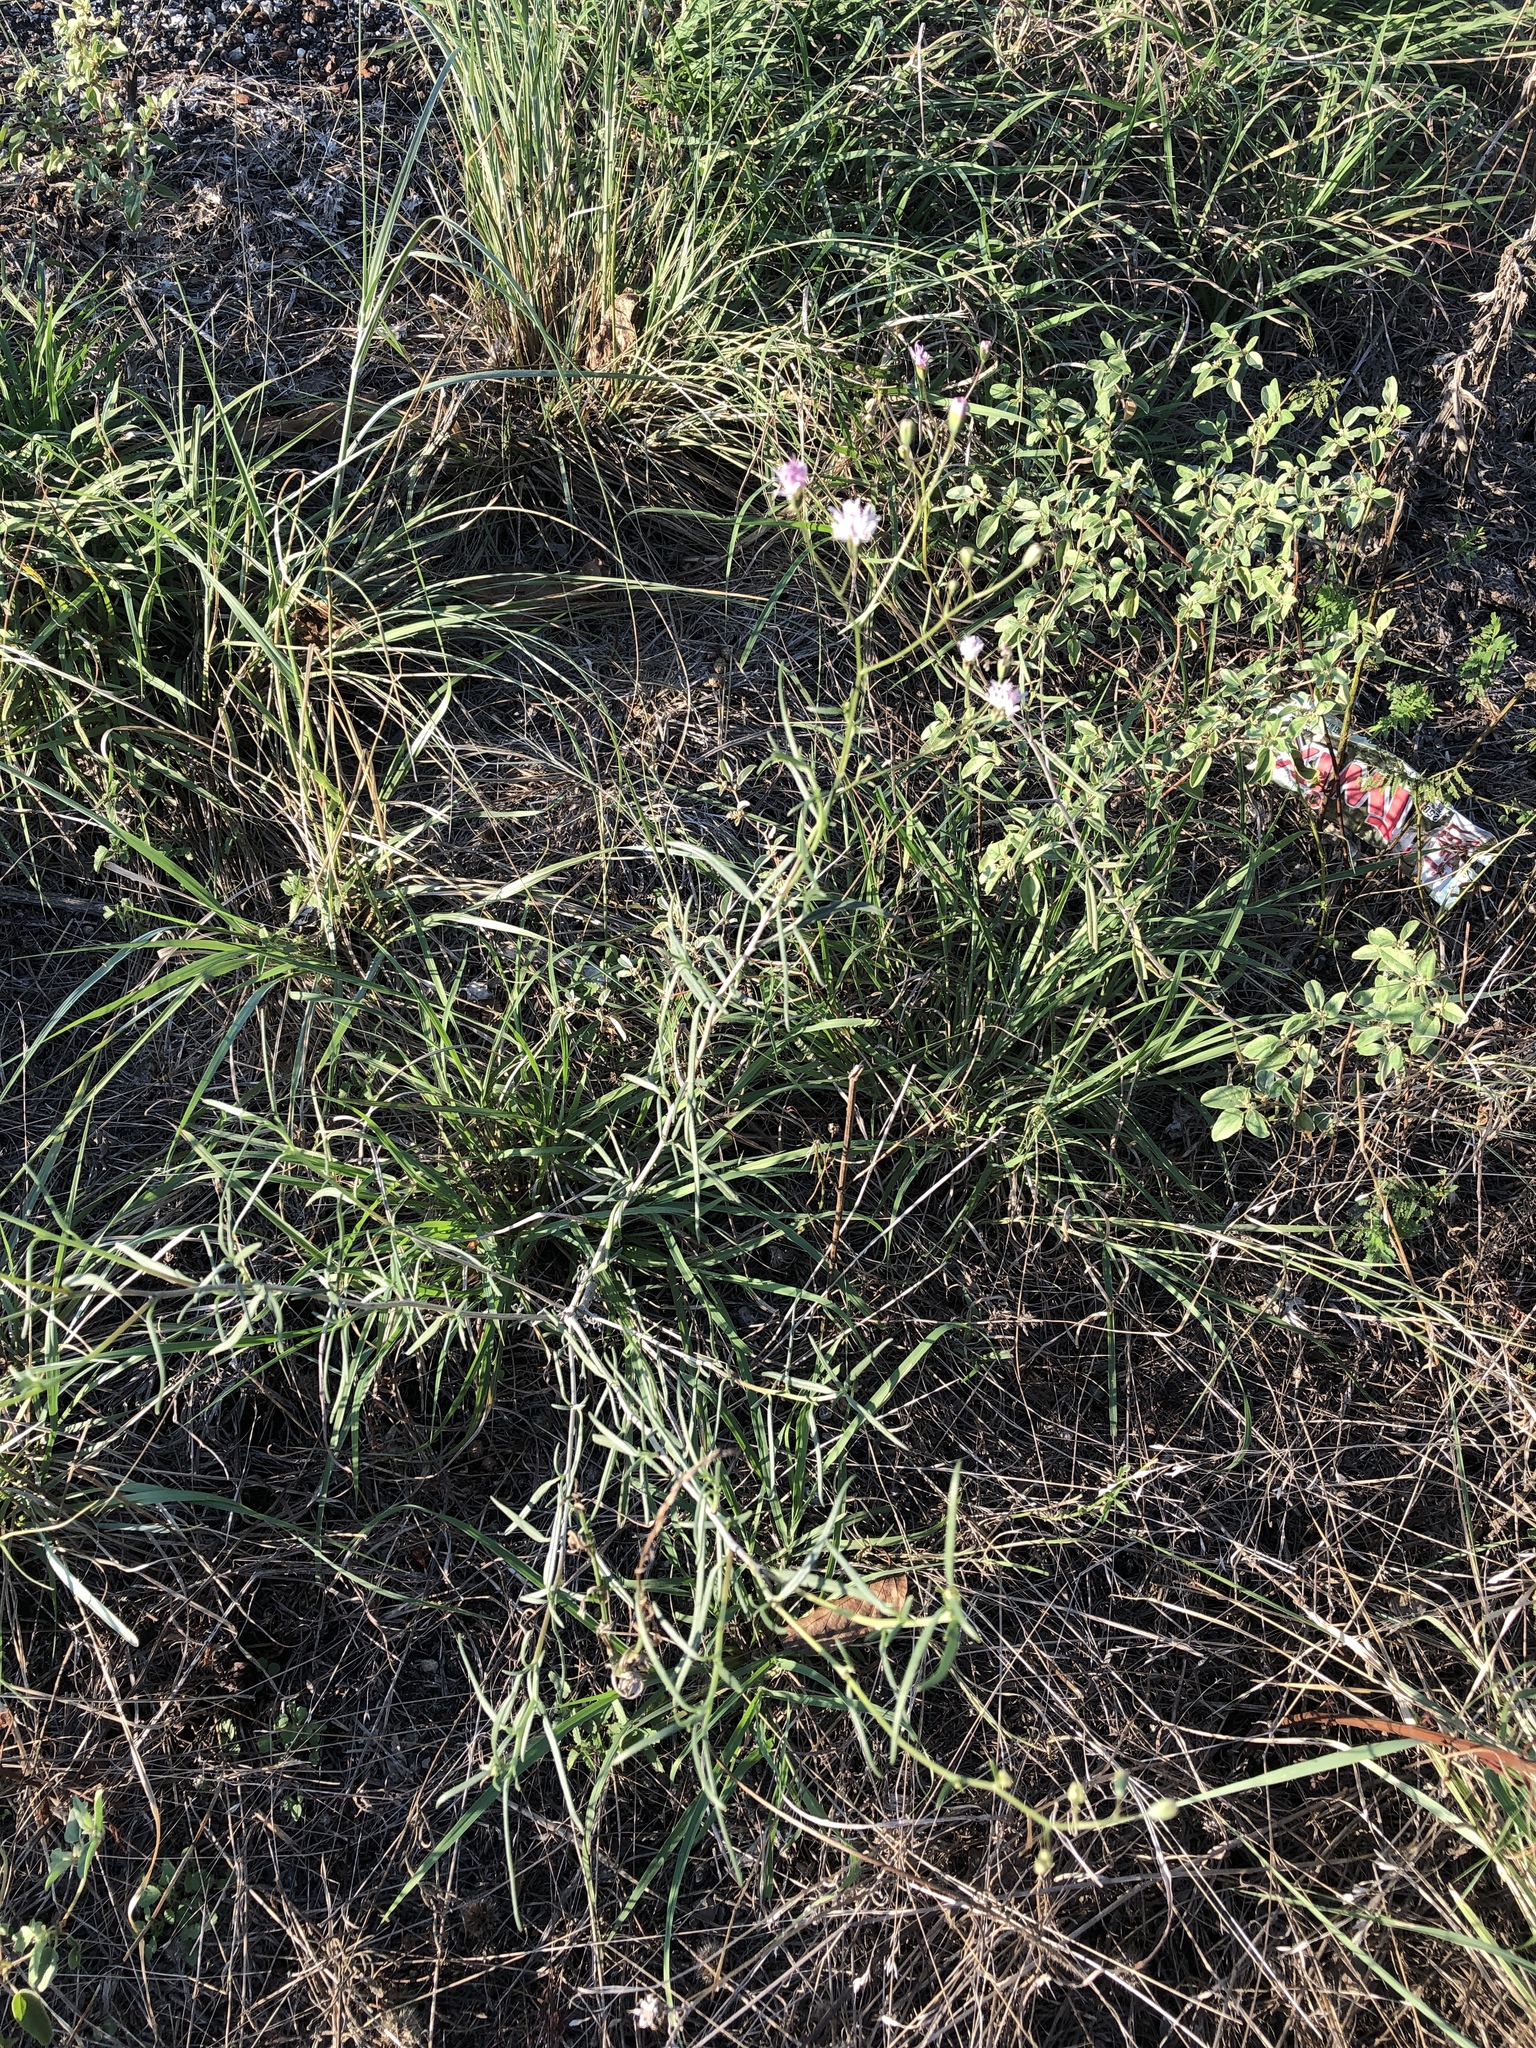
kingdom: Plantae
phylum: Tracheophyta
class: Magnoliopsida
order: Asterales
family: Asteraceae
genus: Palafoxia
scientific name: Palafoxia callosa
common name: Small palafox
